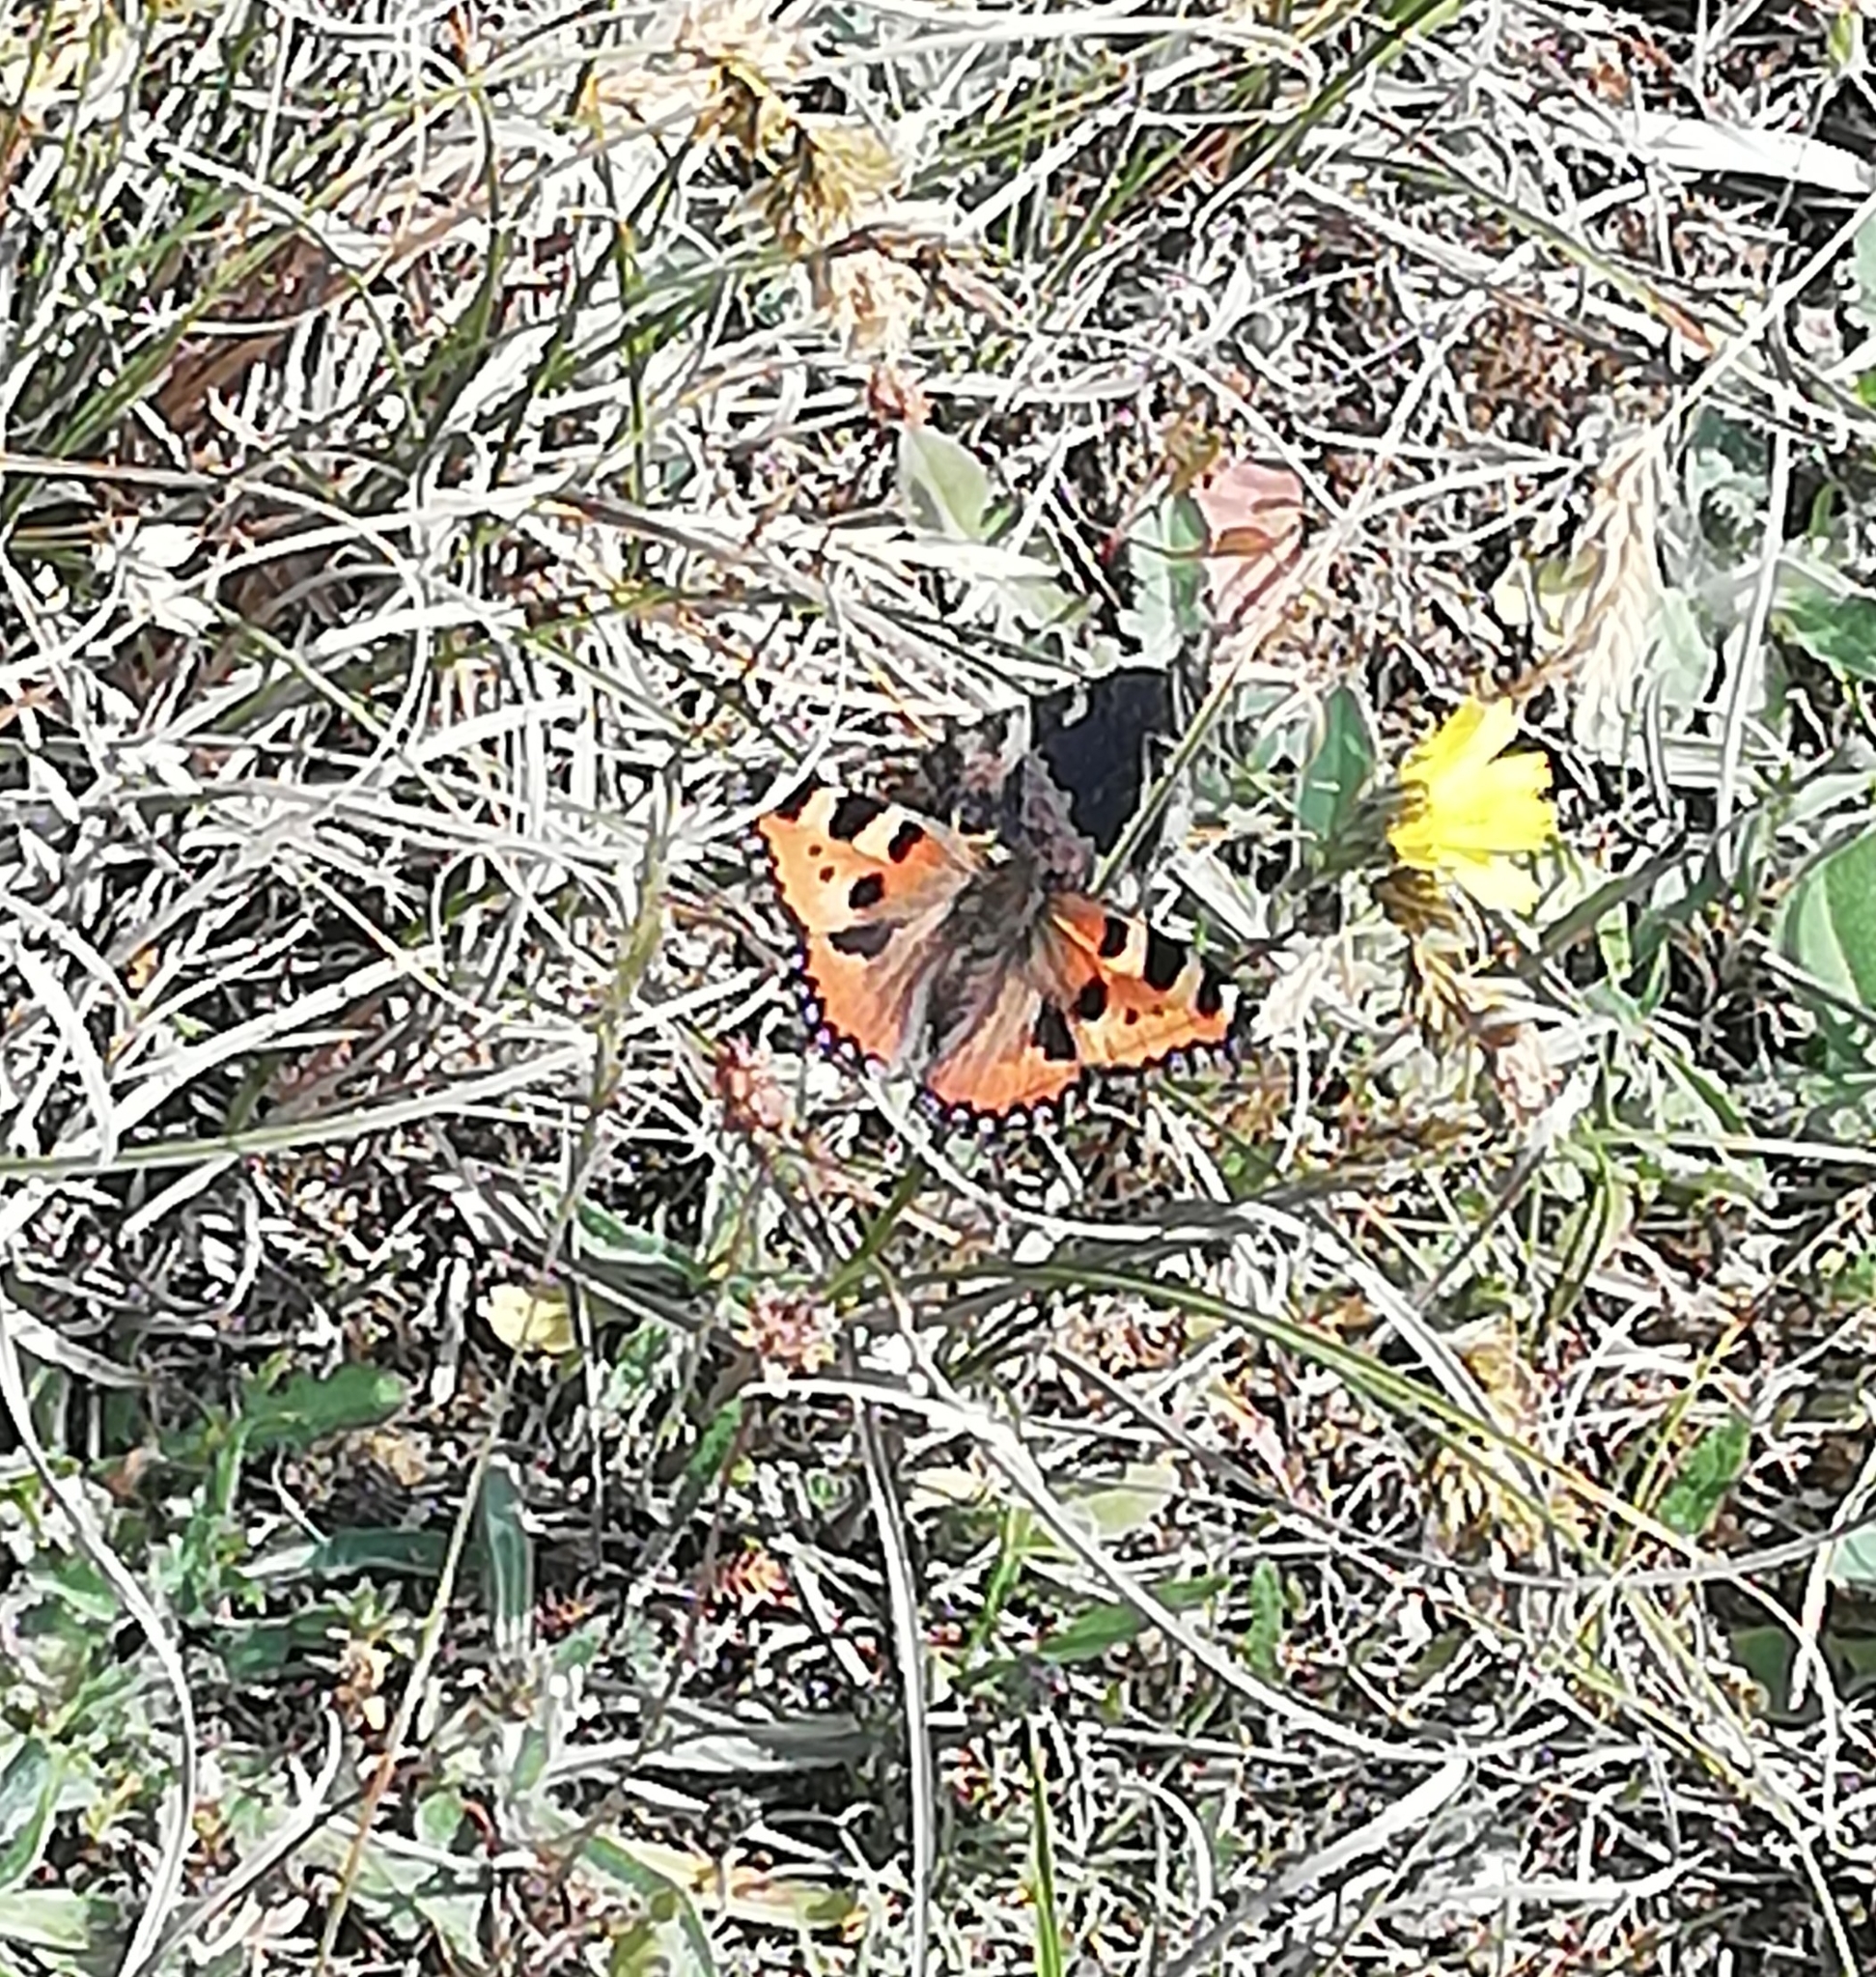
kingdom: Animalia
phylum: Arthropoda
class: Insecta
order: Lepidoptera
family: Nymphalidae
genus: Aglais
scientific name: Aglais urticae
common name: Small tortoiseshell
